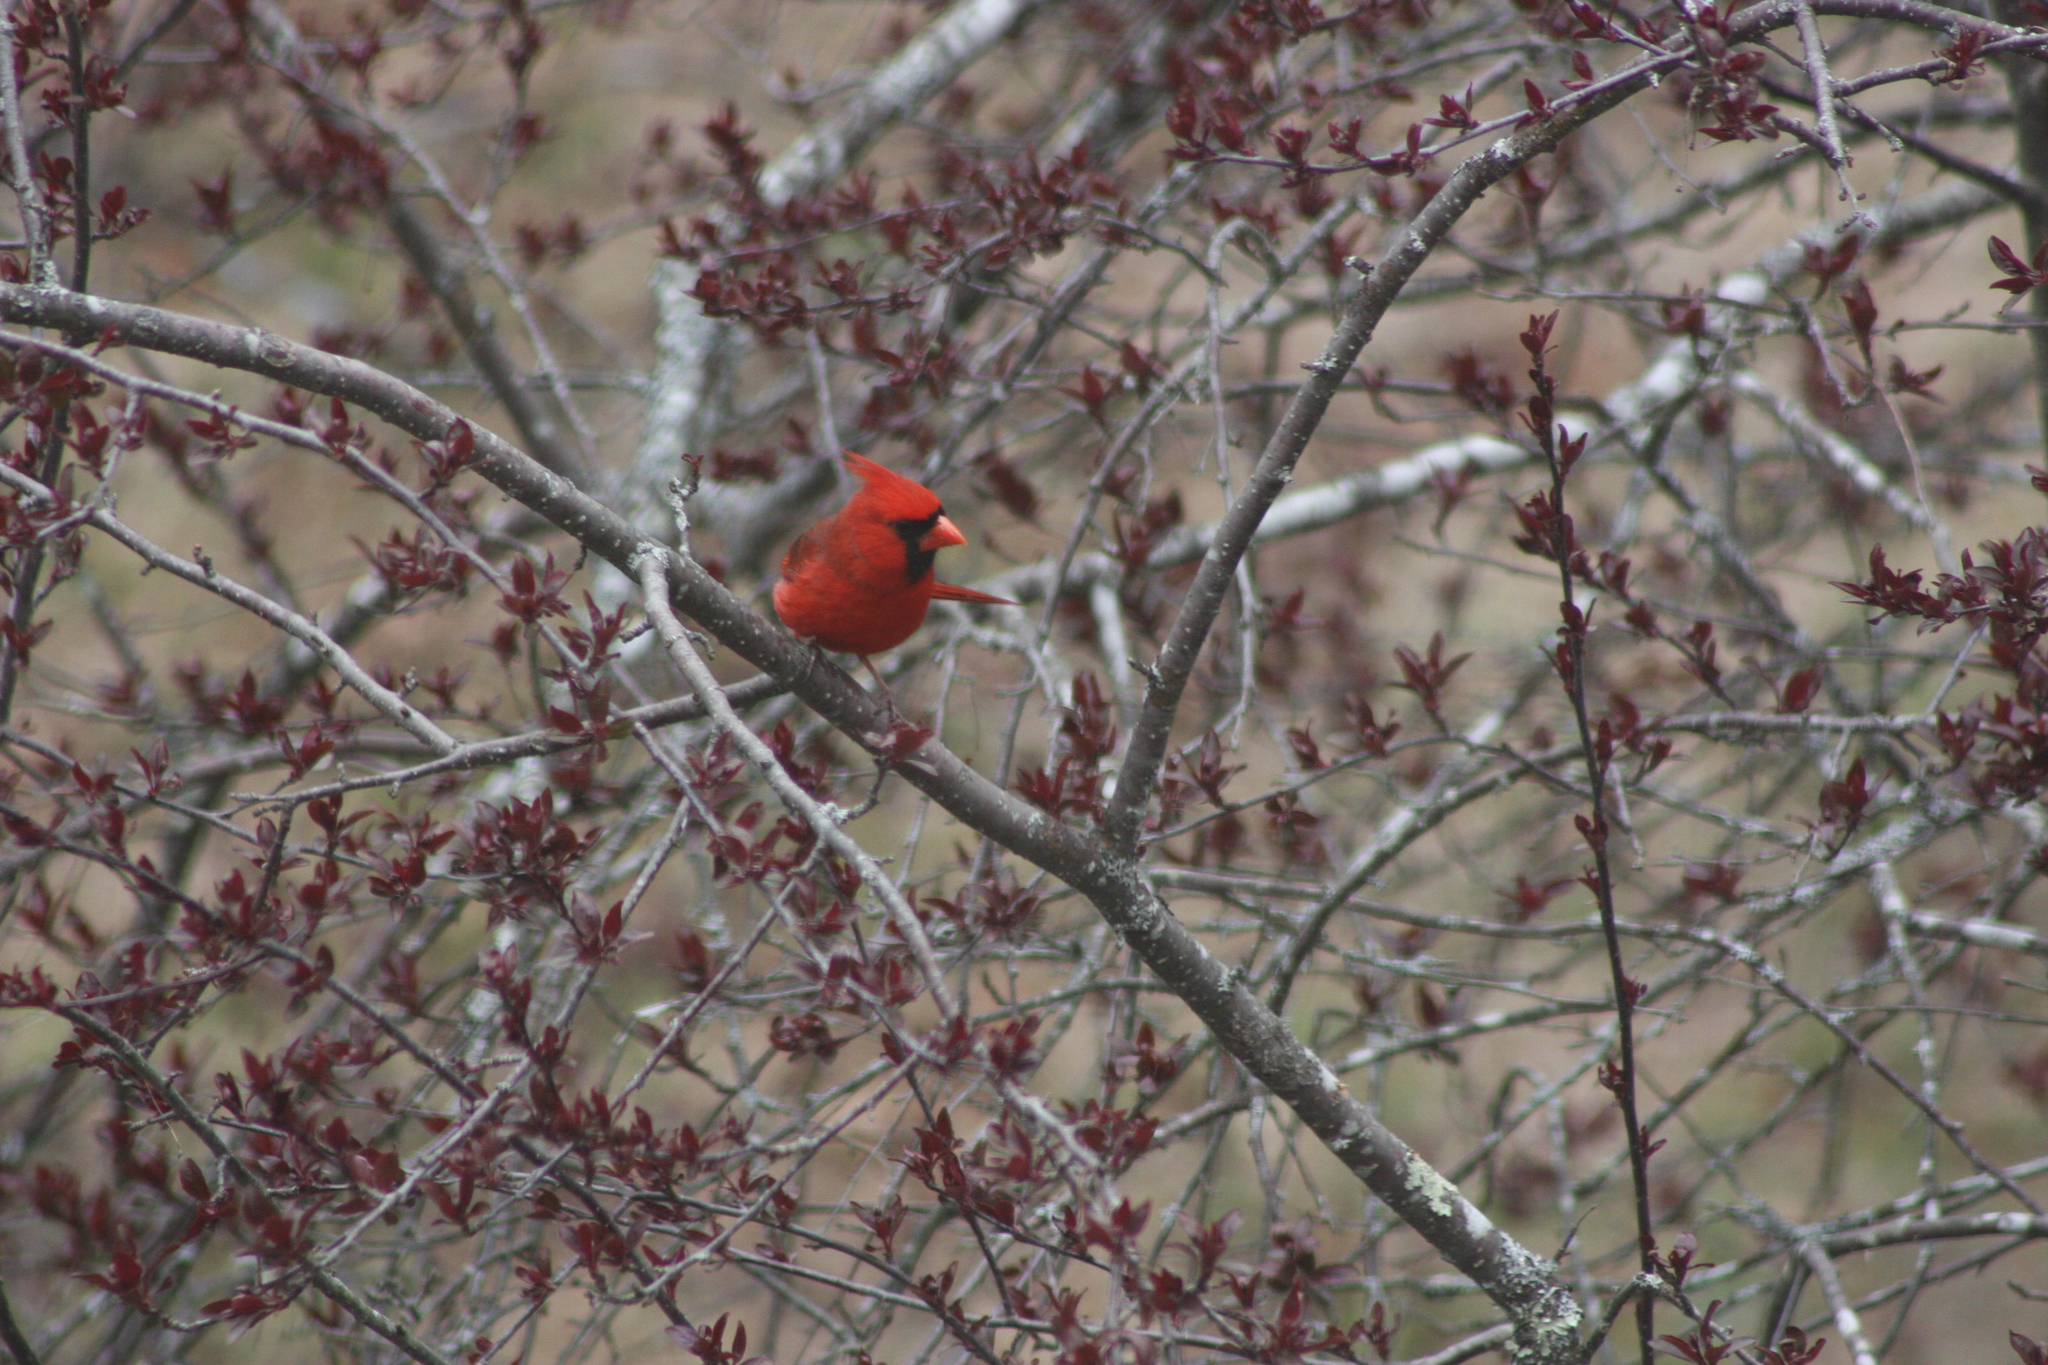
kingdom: Animalia
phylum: Chordata
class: Aves
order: Passeriformes
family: Cardinalidae
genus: Cardinalis
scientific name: Cardinalis cardinalis
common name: Northern cardinal
